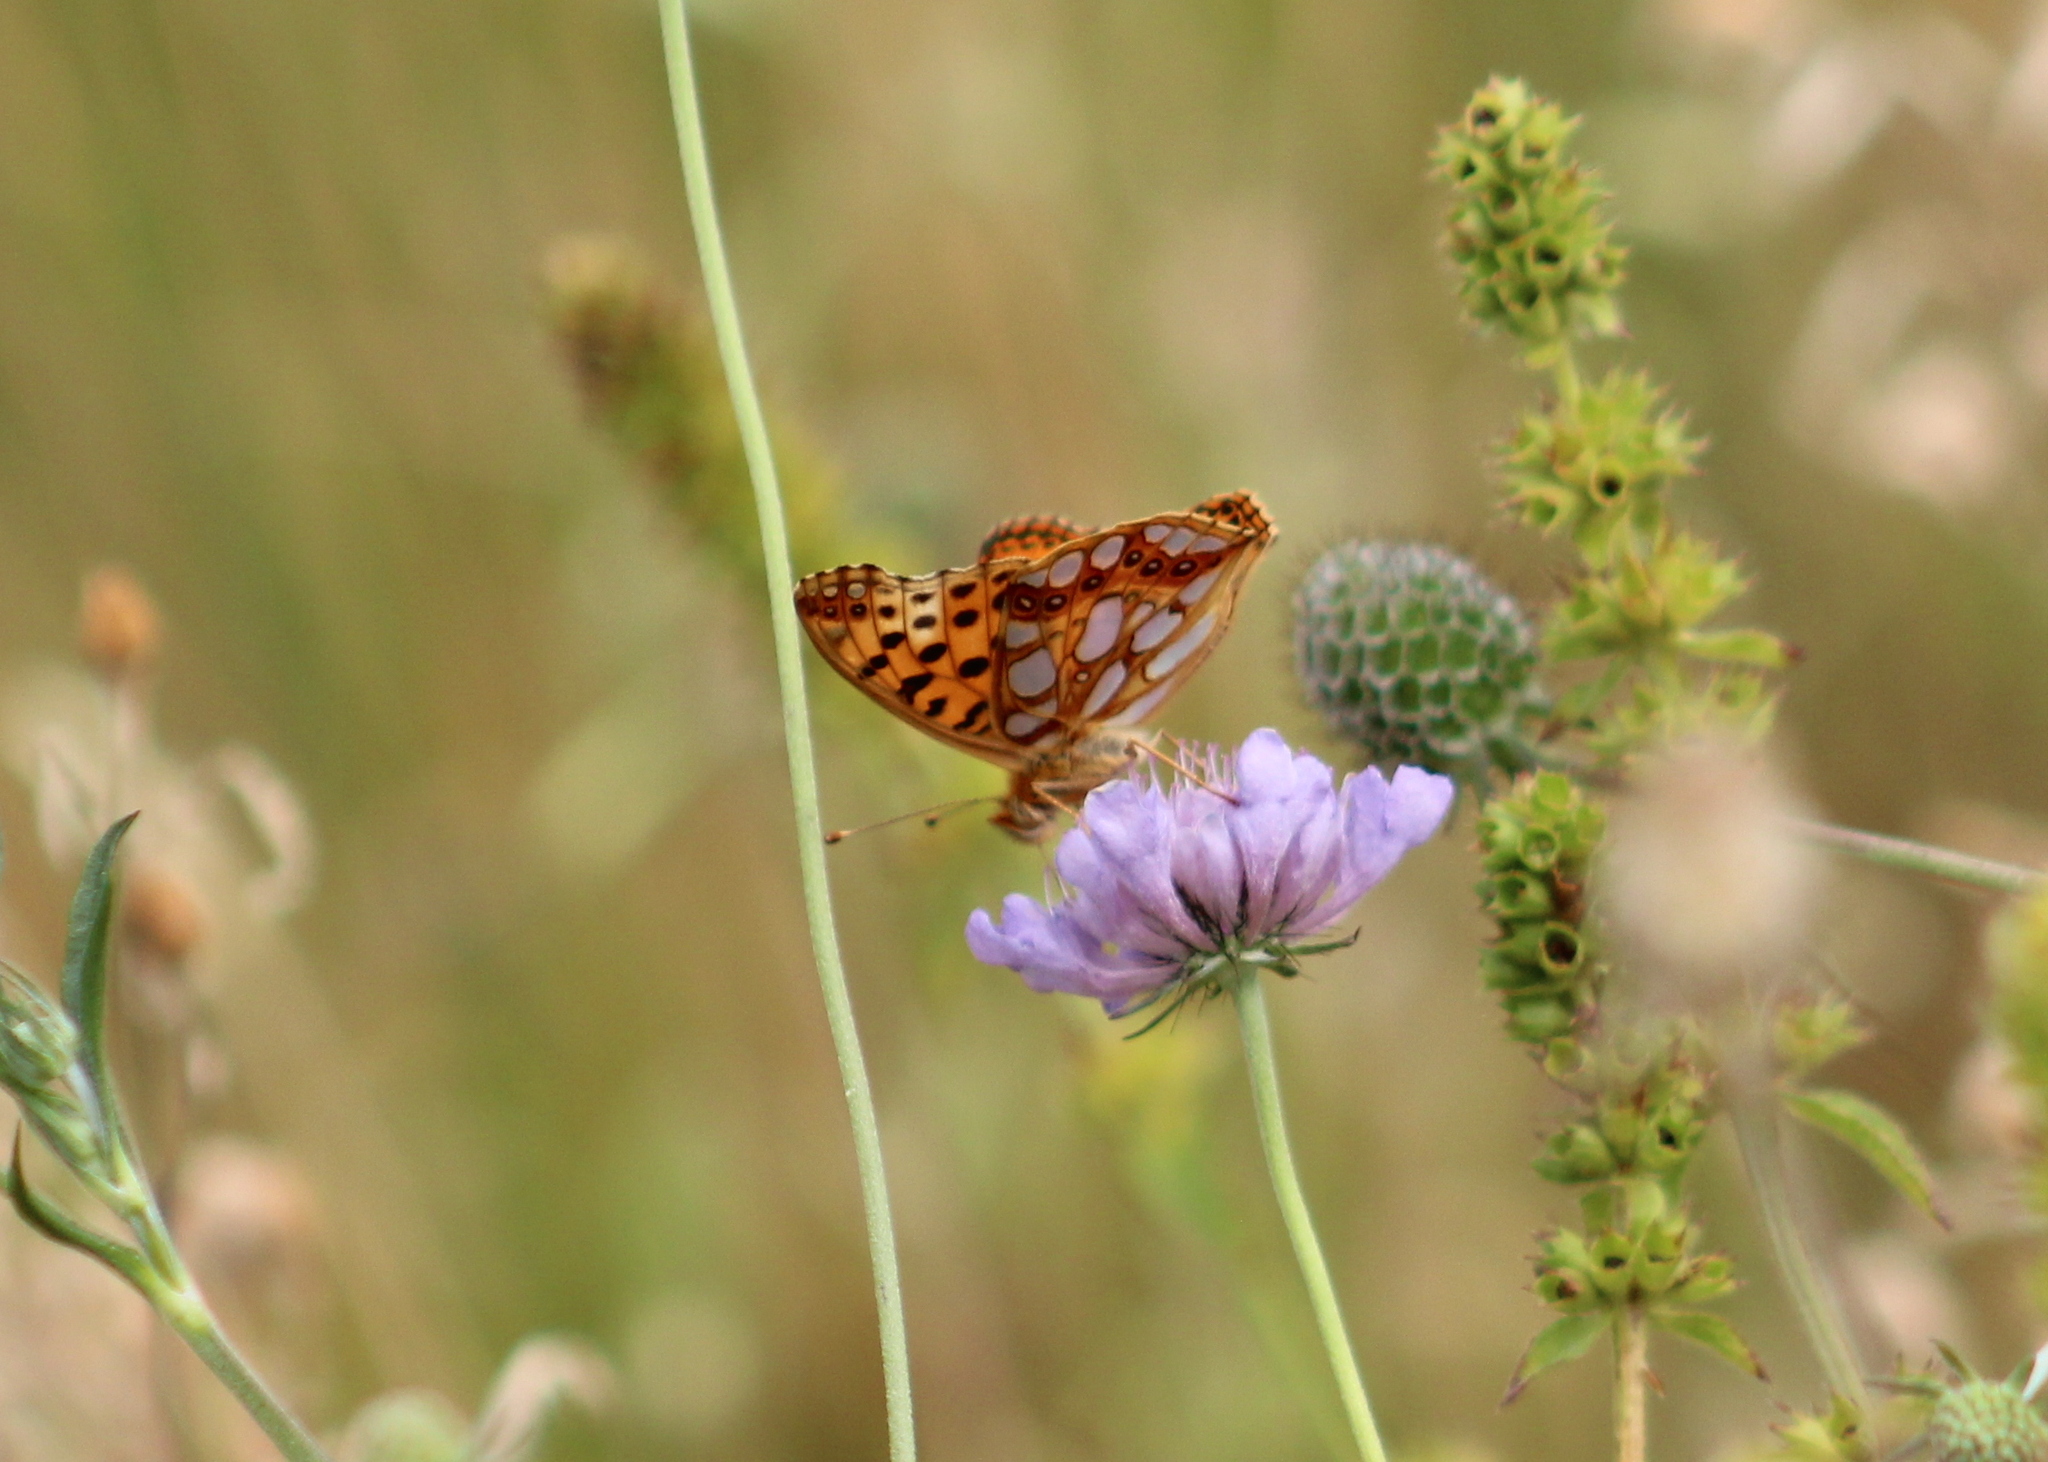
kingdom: Animalia
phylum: Arthropoda
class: Insecta
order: Lepidoptera
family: Nymphalidae
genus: Issoria
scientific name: Issoria lathonia
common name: Queen of spain fritillary
